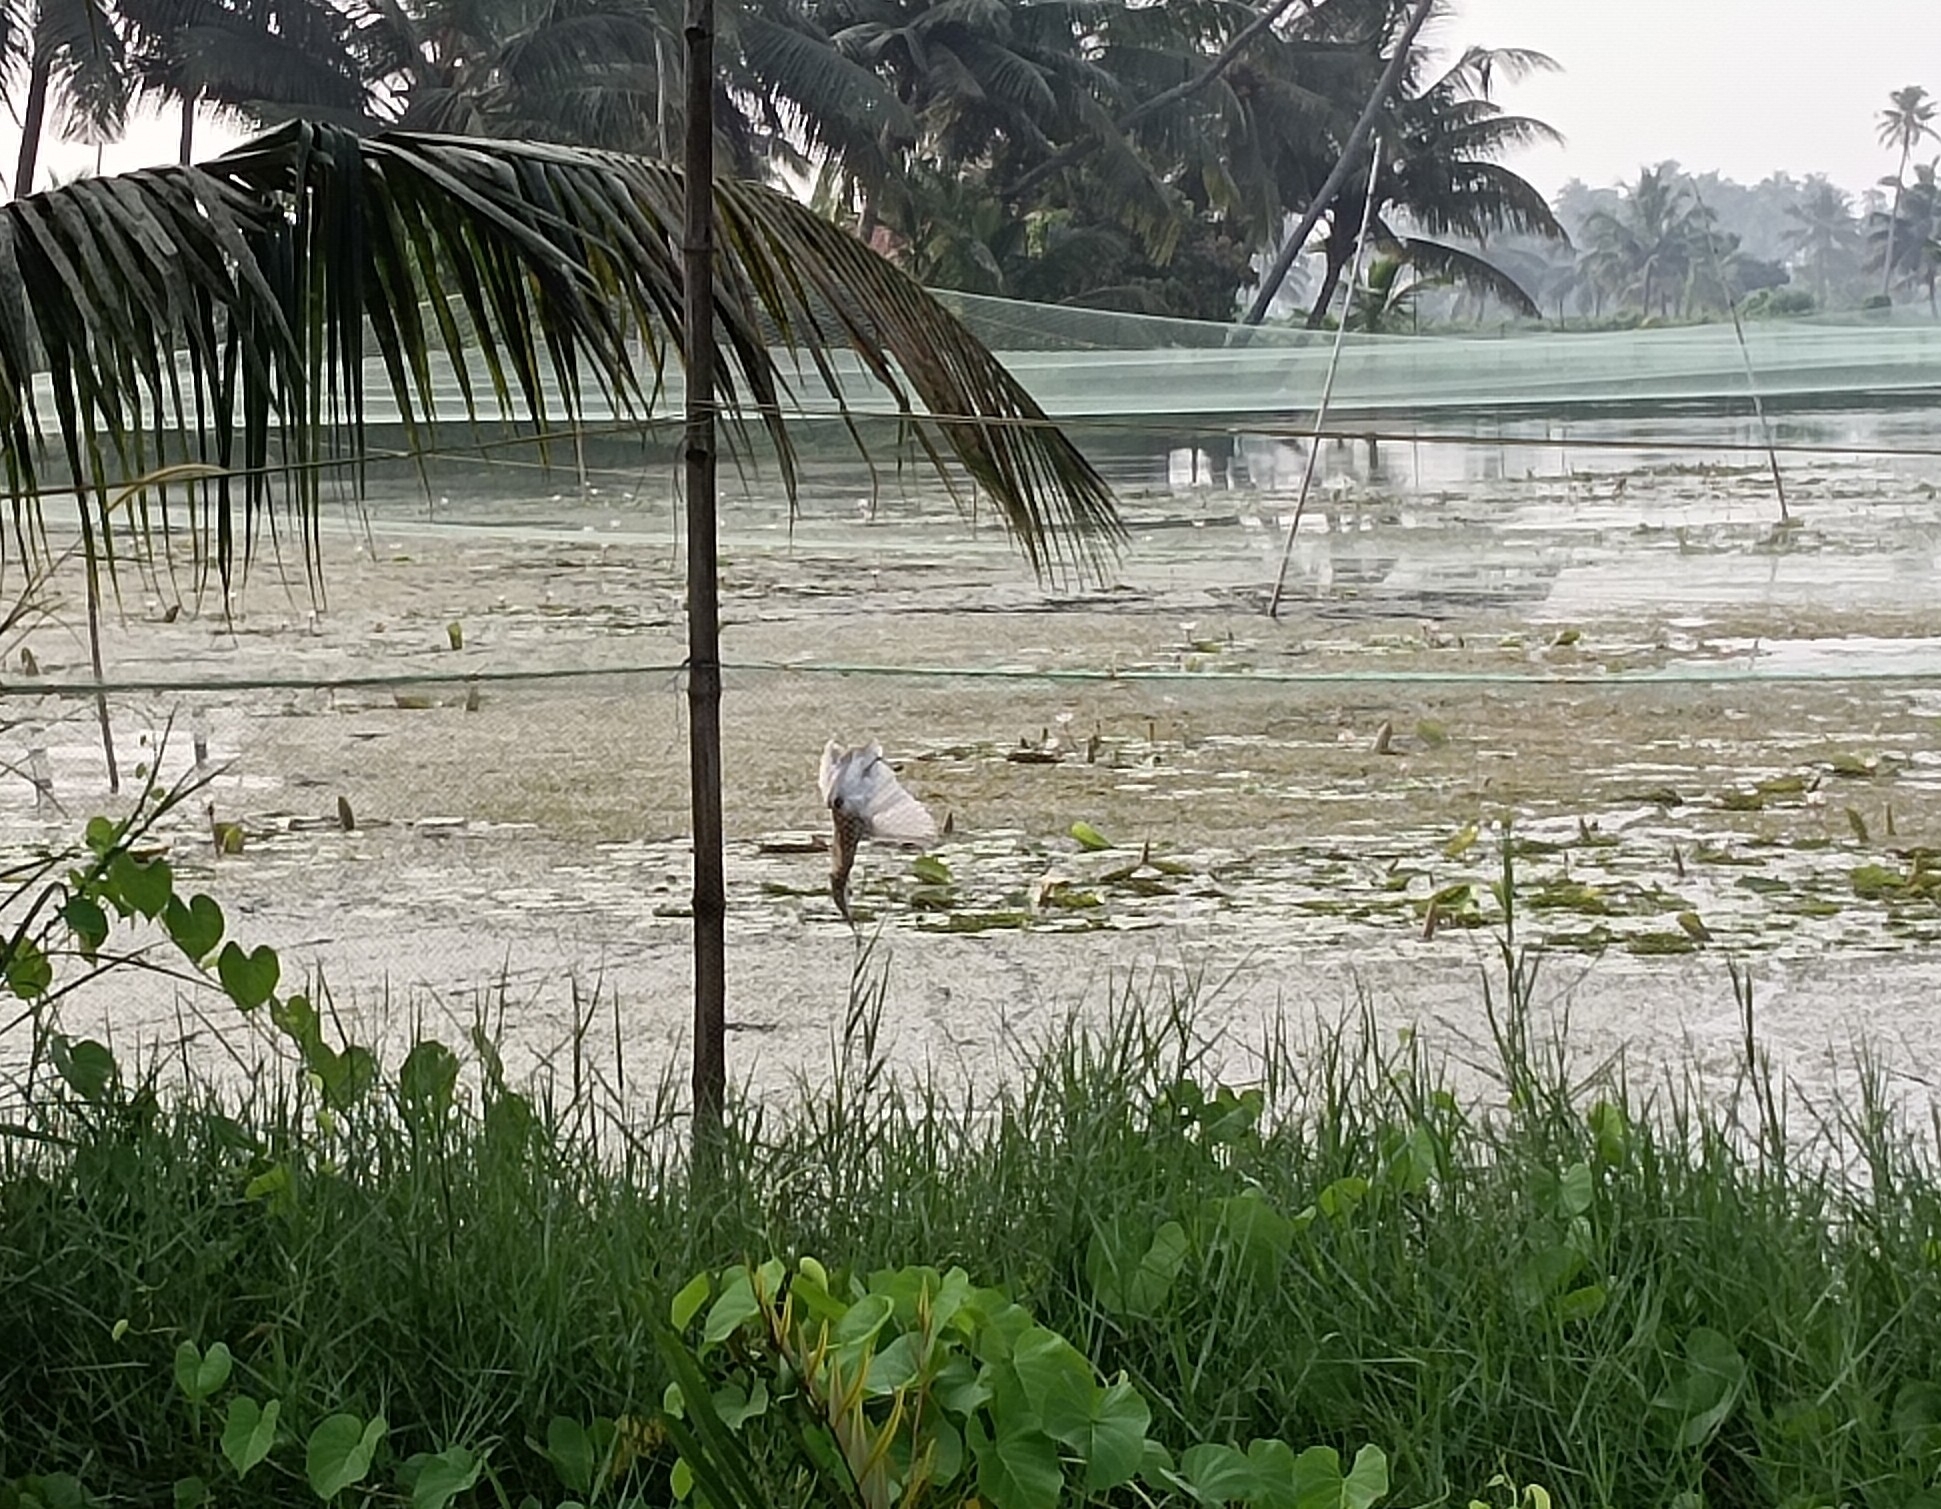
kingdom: Animalia
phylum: Chordata
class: Aves
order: Pelecaniformes
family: Ardeidae
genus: Ardeola
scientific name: Ardeola grayii
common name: Indian pond heron
